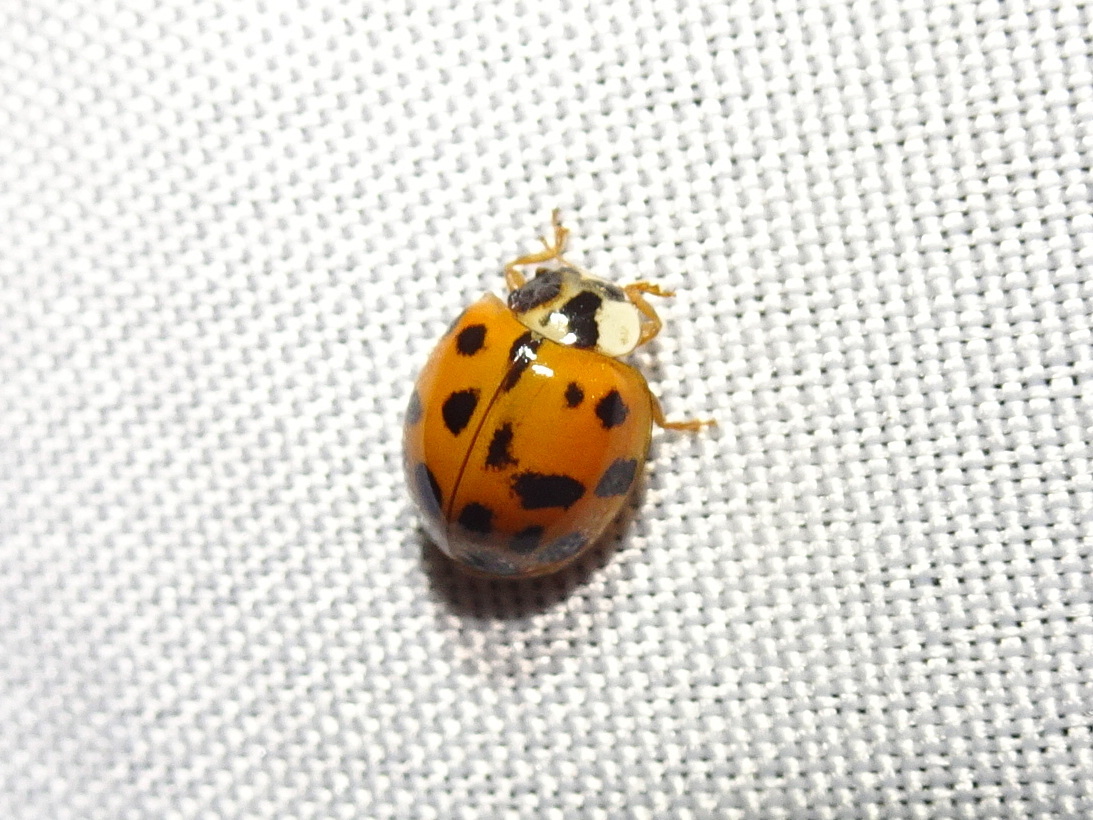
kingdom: Animalia
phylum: Arthropoda
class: Insecta
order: Coleoptera
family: Coccinellidae
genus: Harmonia
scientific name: Harmonia axyridis
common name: Harlequin ladybird
